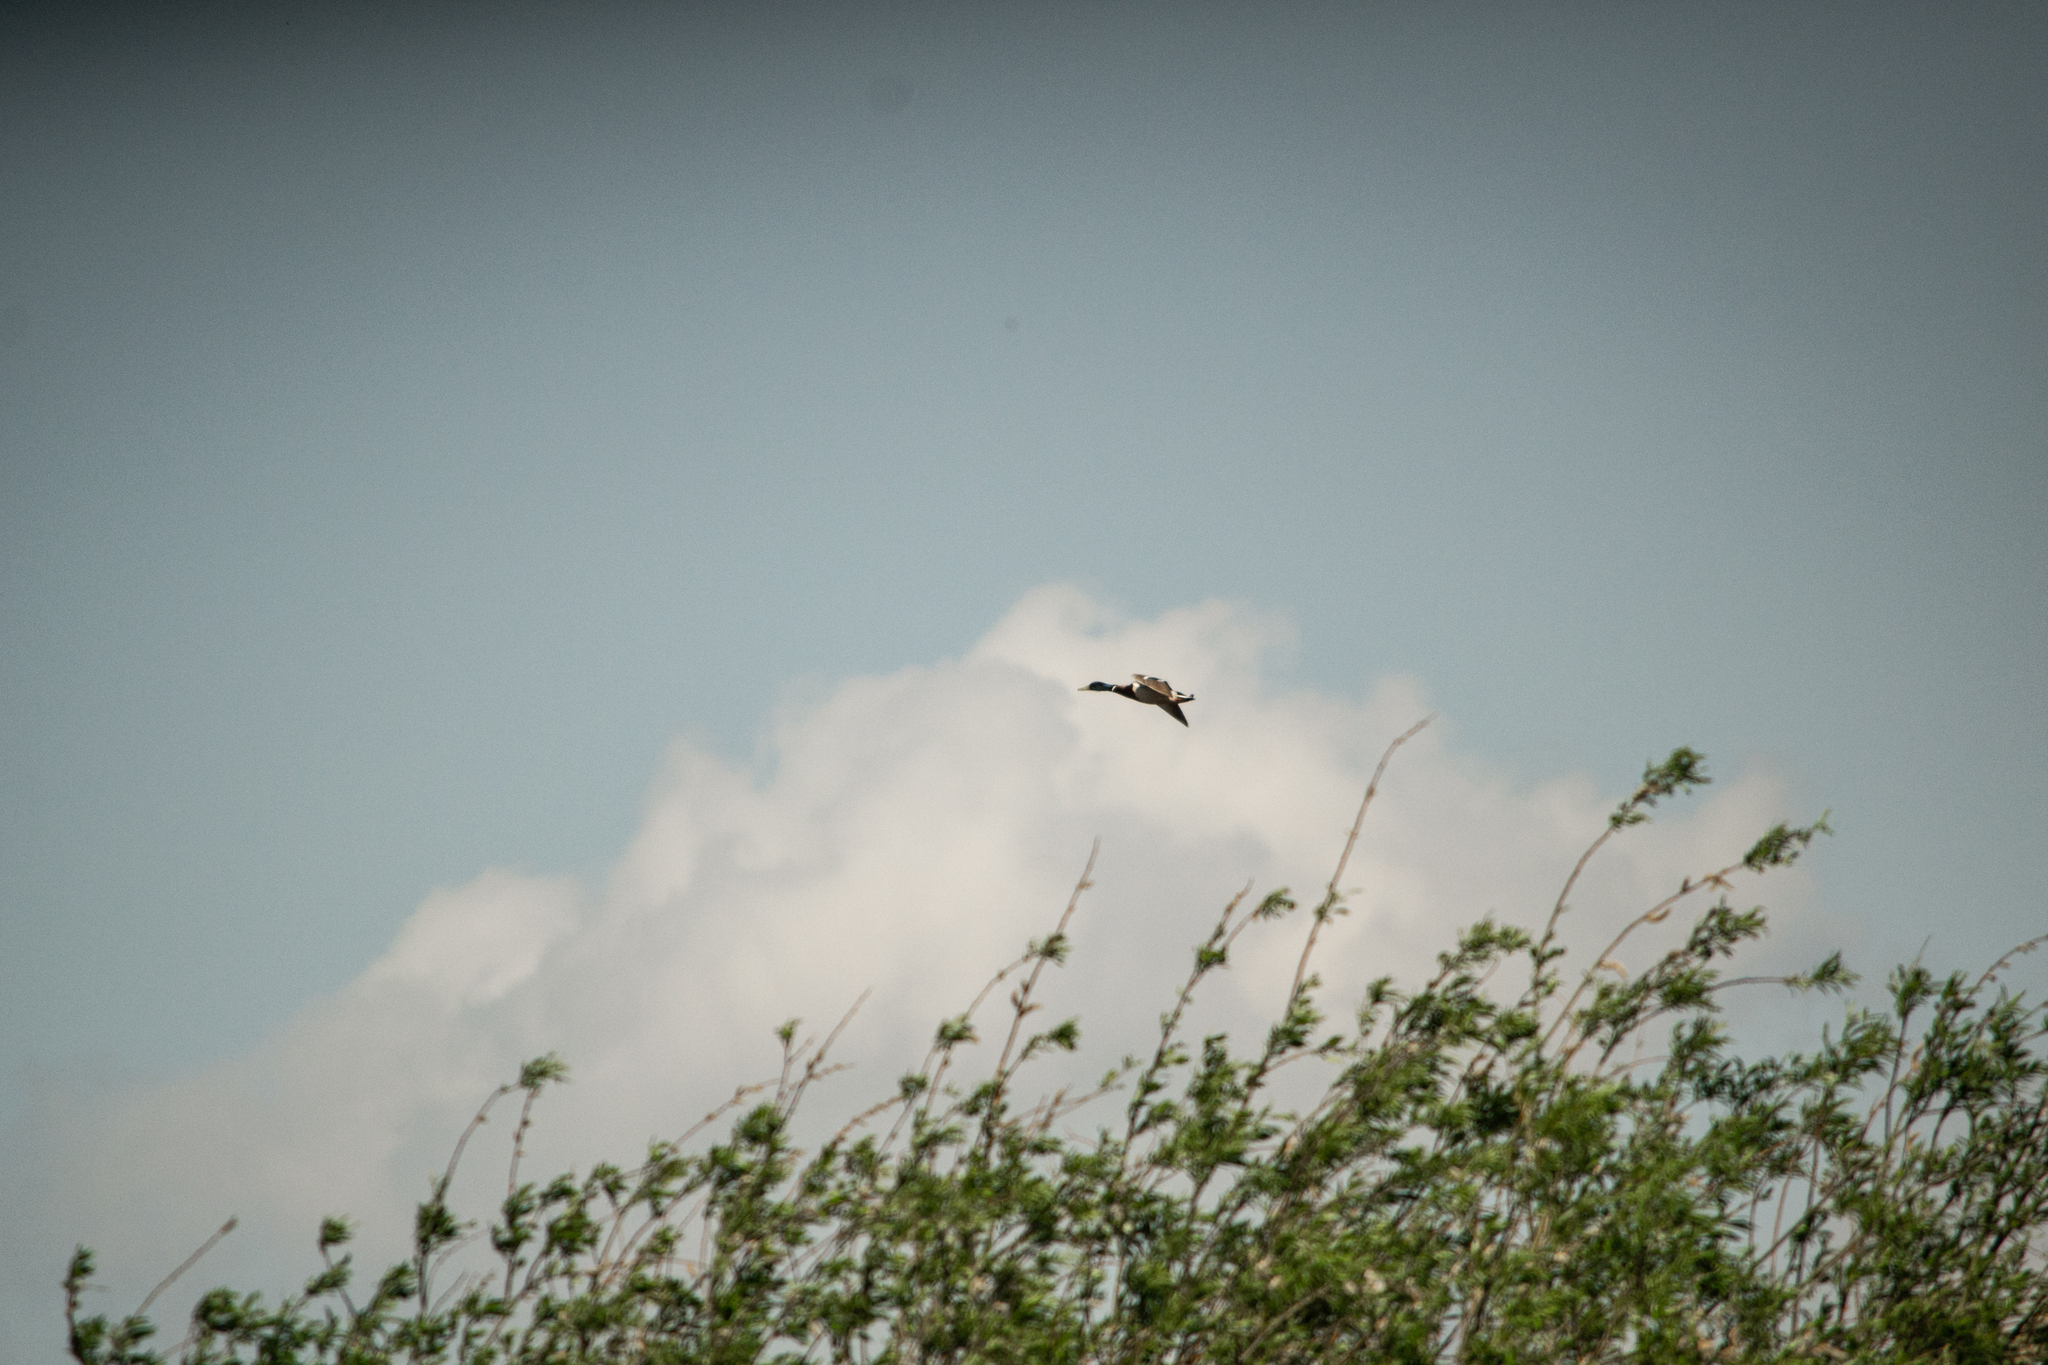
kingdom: Animalia
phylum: Chordata
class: Aves
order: Anseriformes
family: Anatidae
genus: Anas
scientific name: Anas platyrhynchos
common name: Mallard
